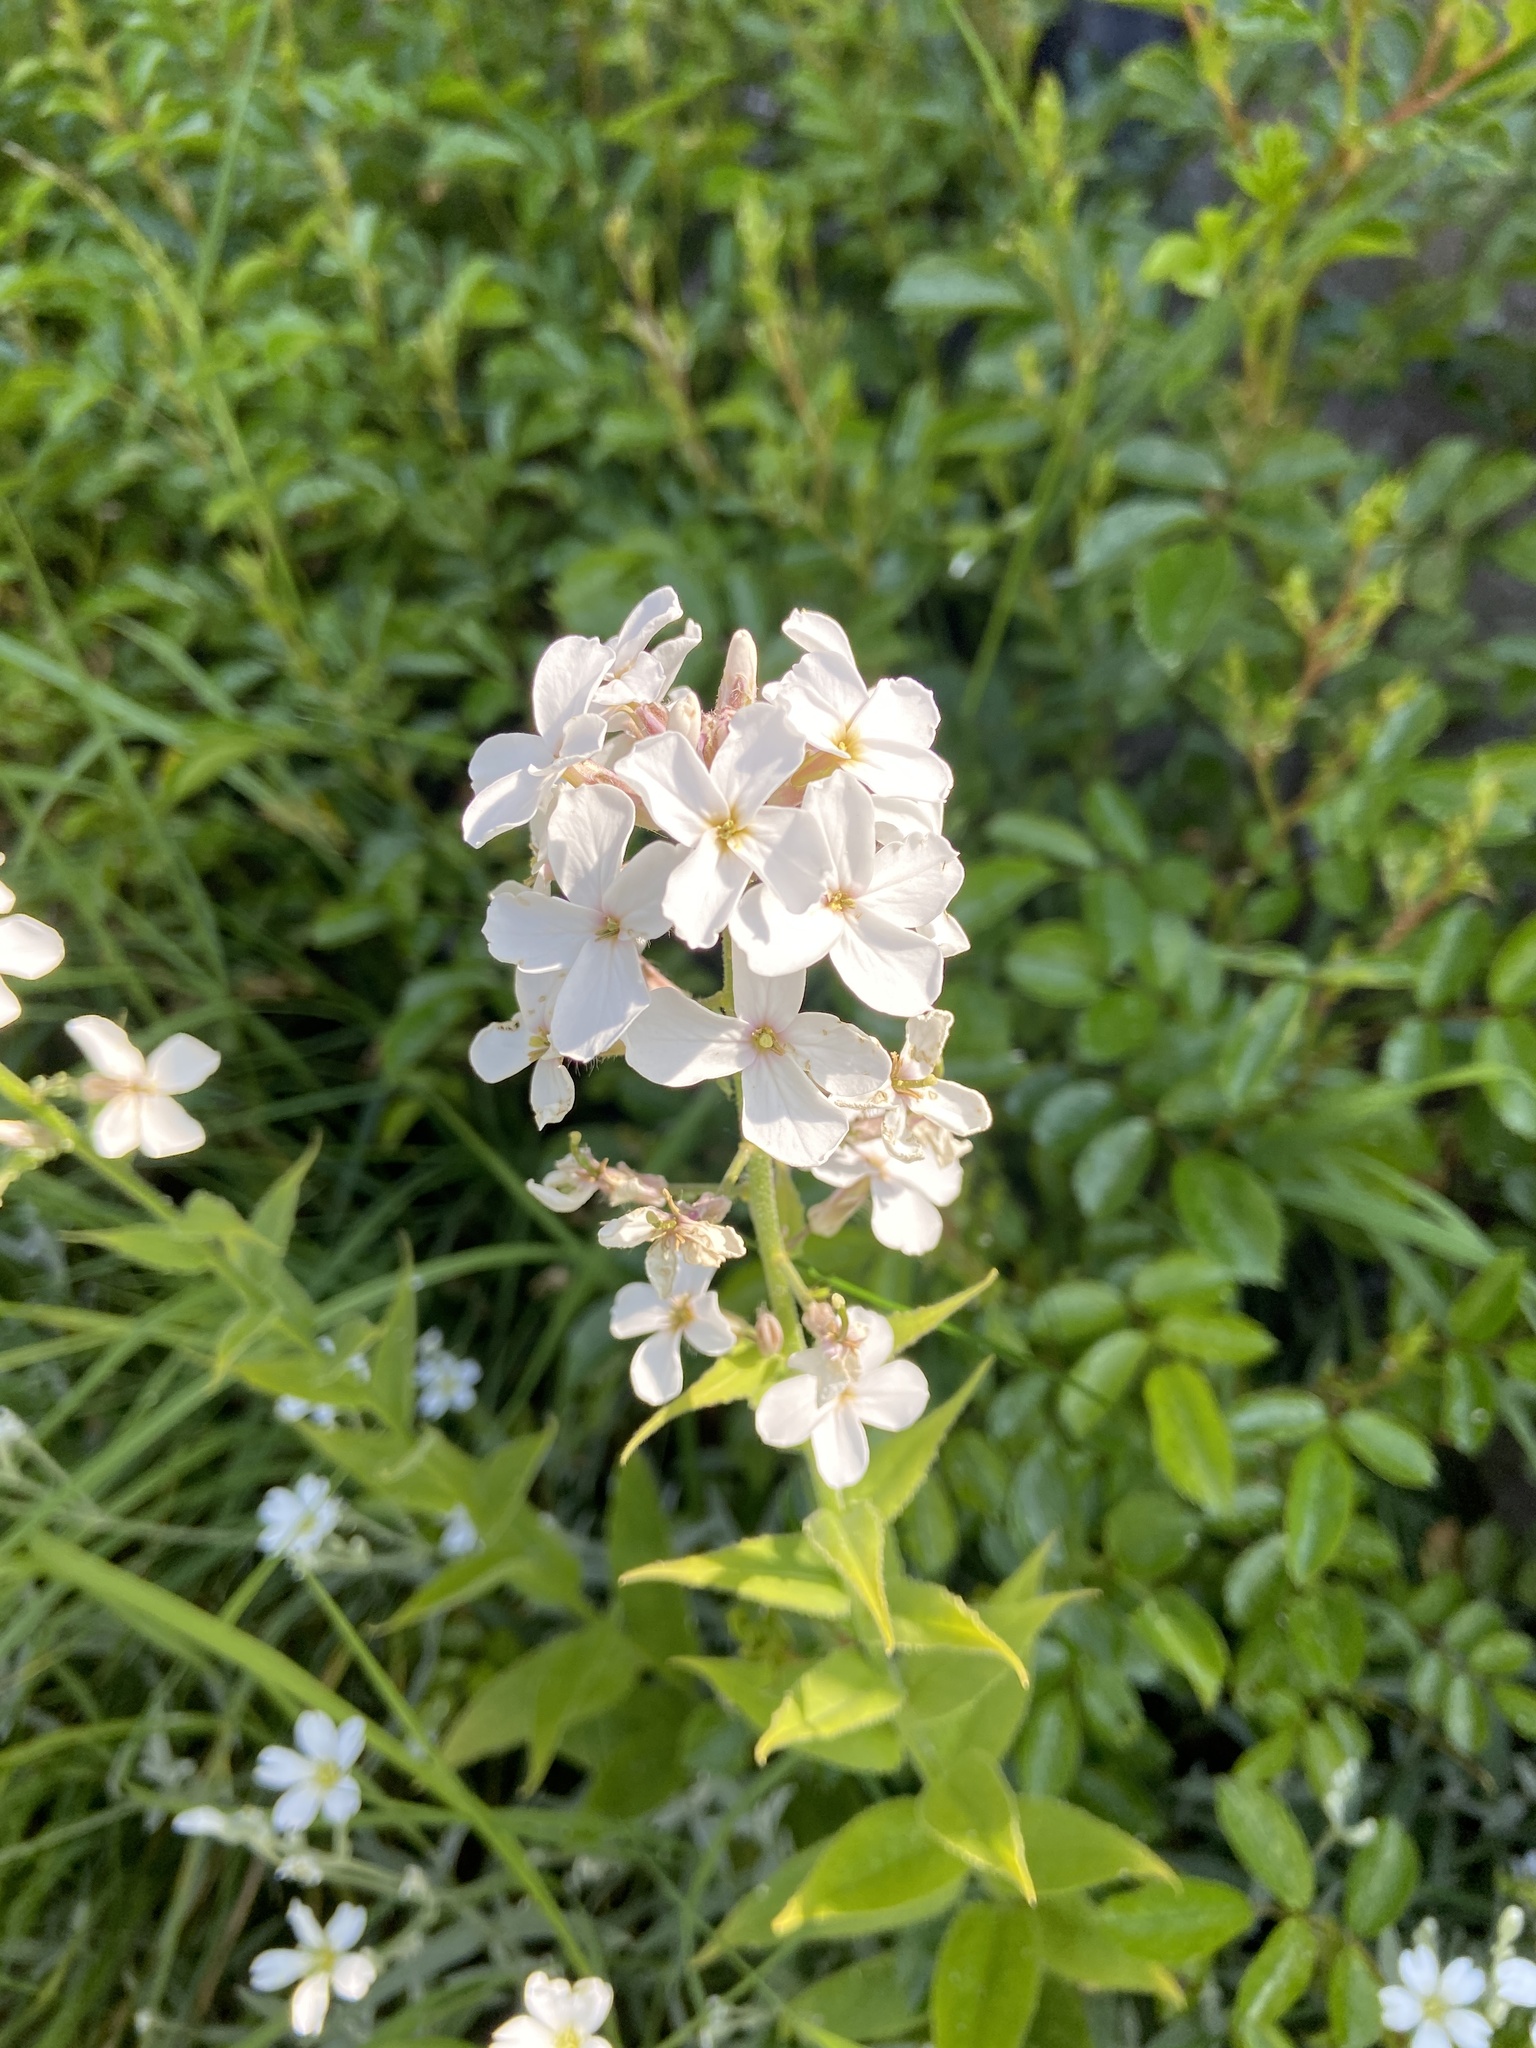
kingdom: Plantae
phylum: Tracheophyta
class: Magnoliopsida
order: Brassicales
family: Brassicaceae
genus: Hesperis
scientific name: Hesperis matronalis
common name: Dame's-violet
